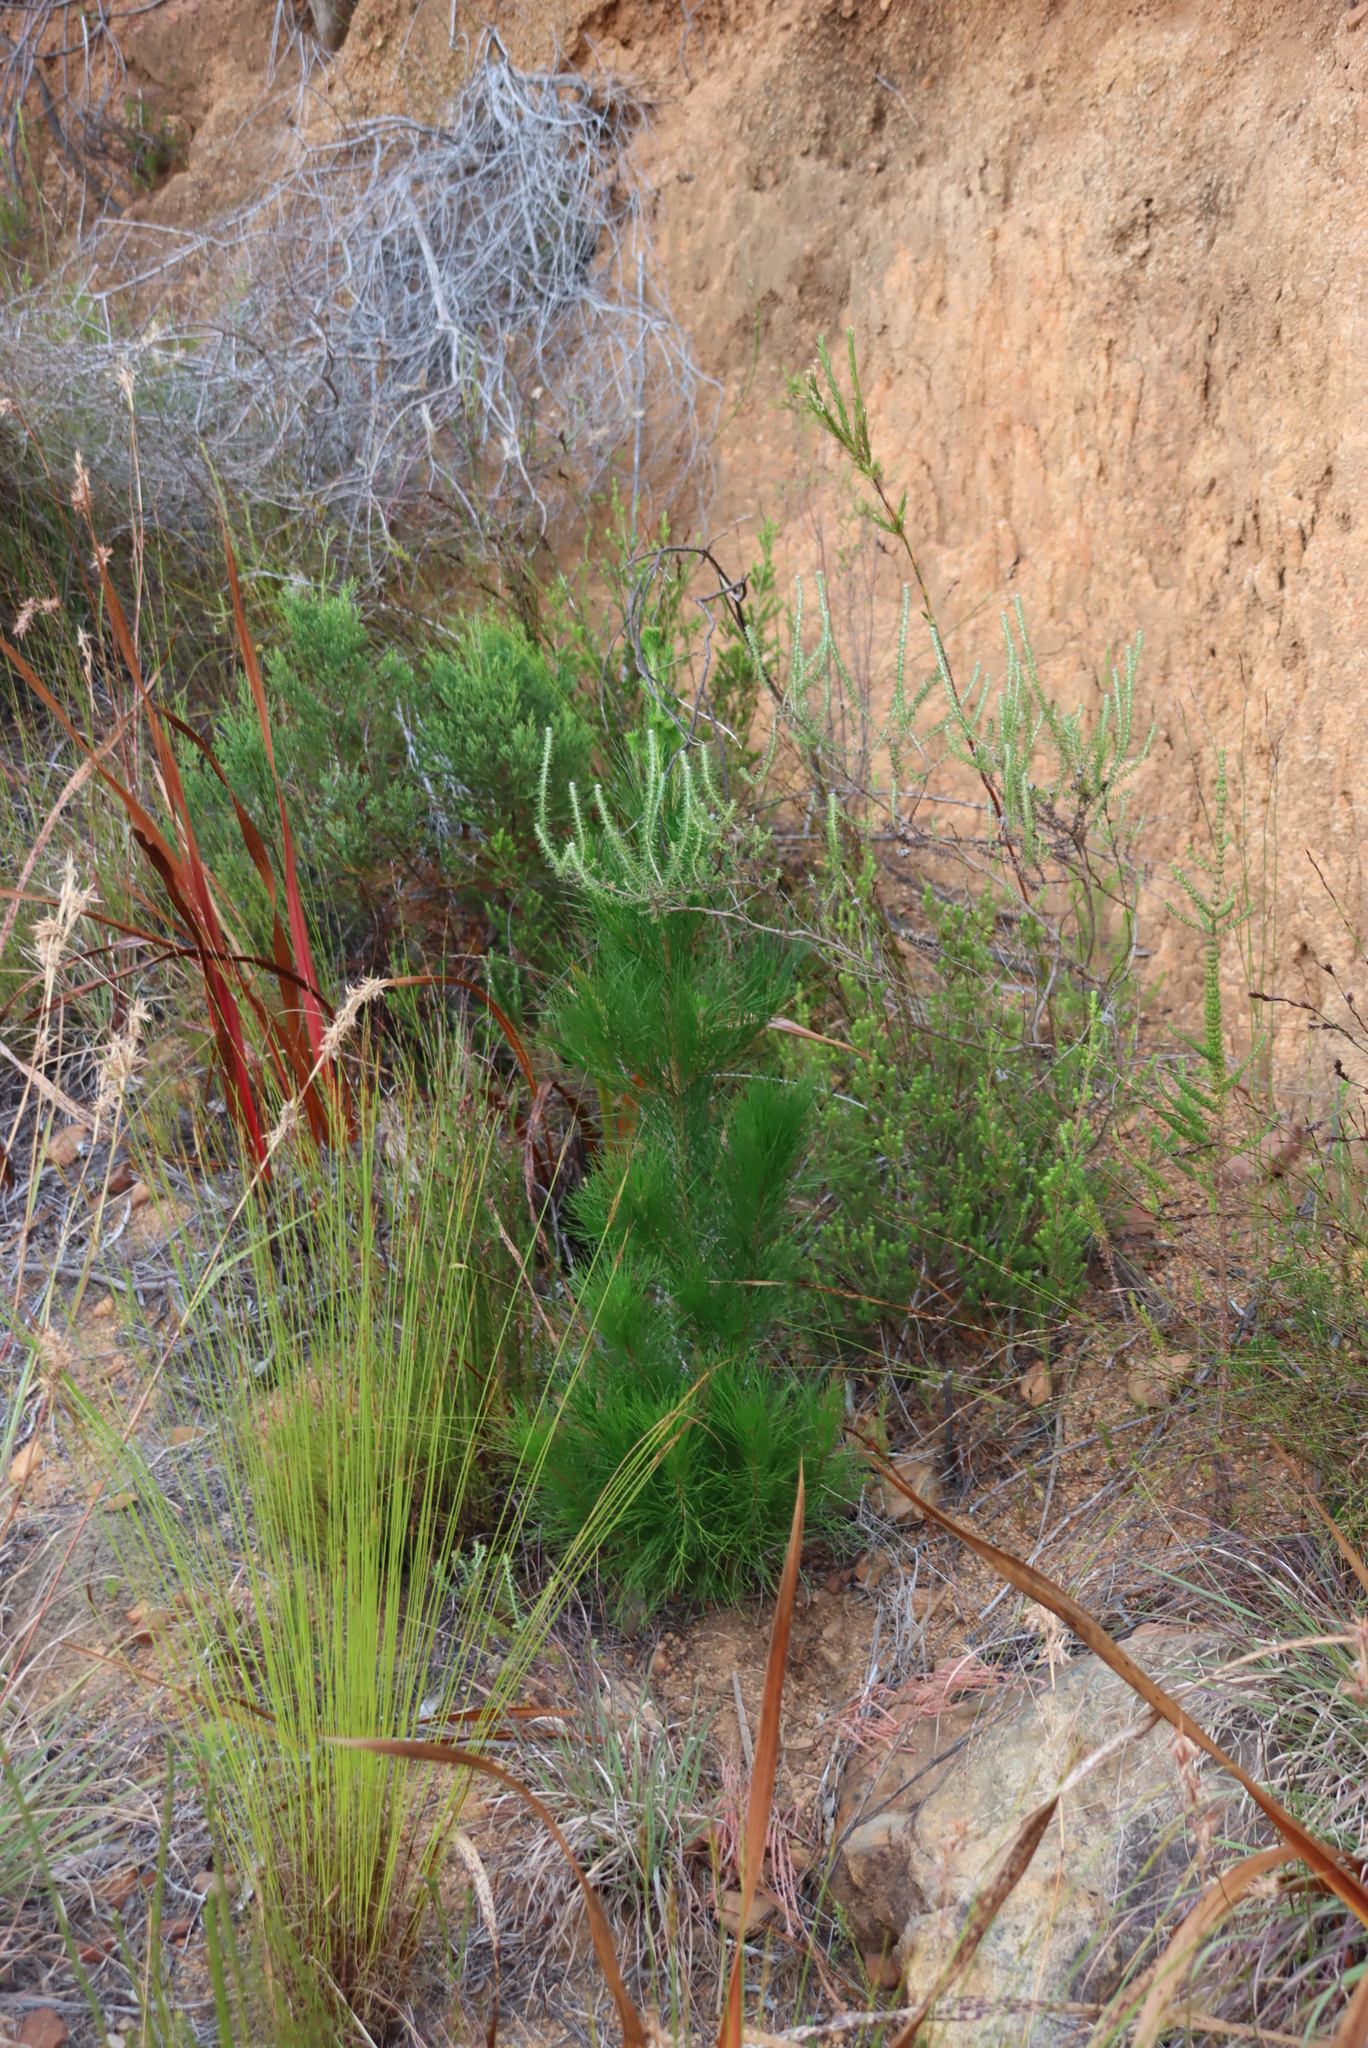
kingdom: Plantae
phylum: Tracheophyta
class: Pinopsida
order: Pinales
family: Pinaceae
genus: Pinus
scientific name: Pinus radiata
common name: Monterey pine
